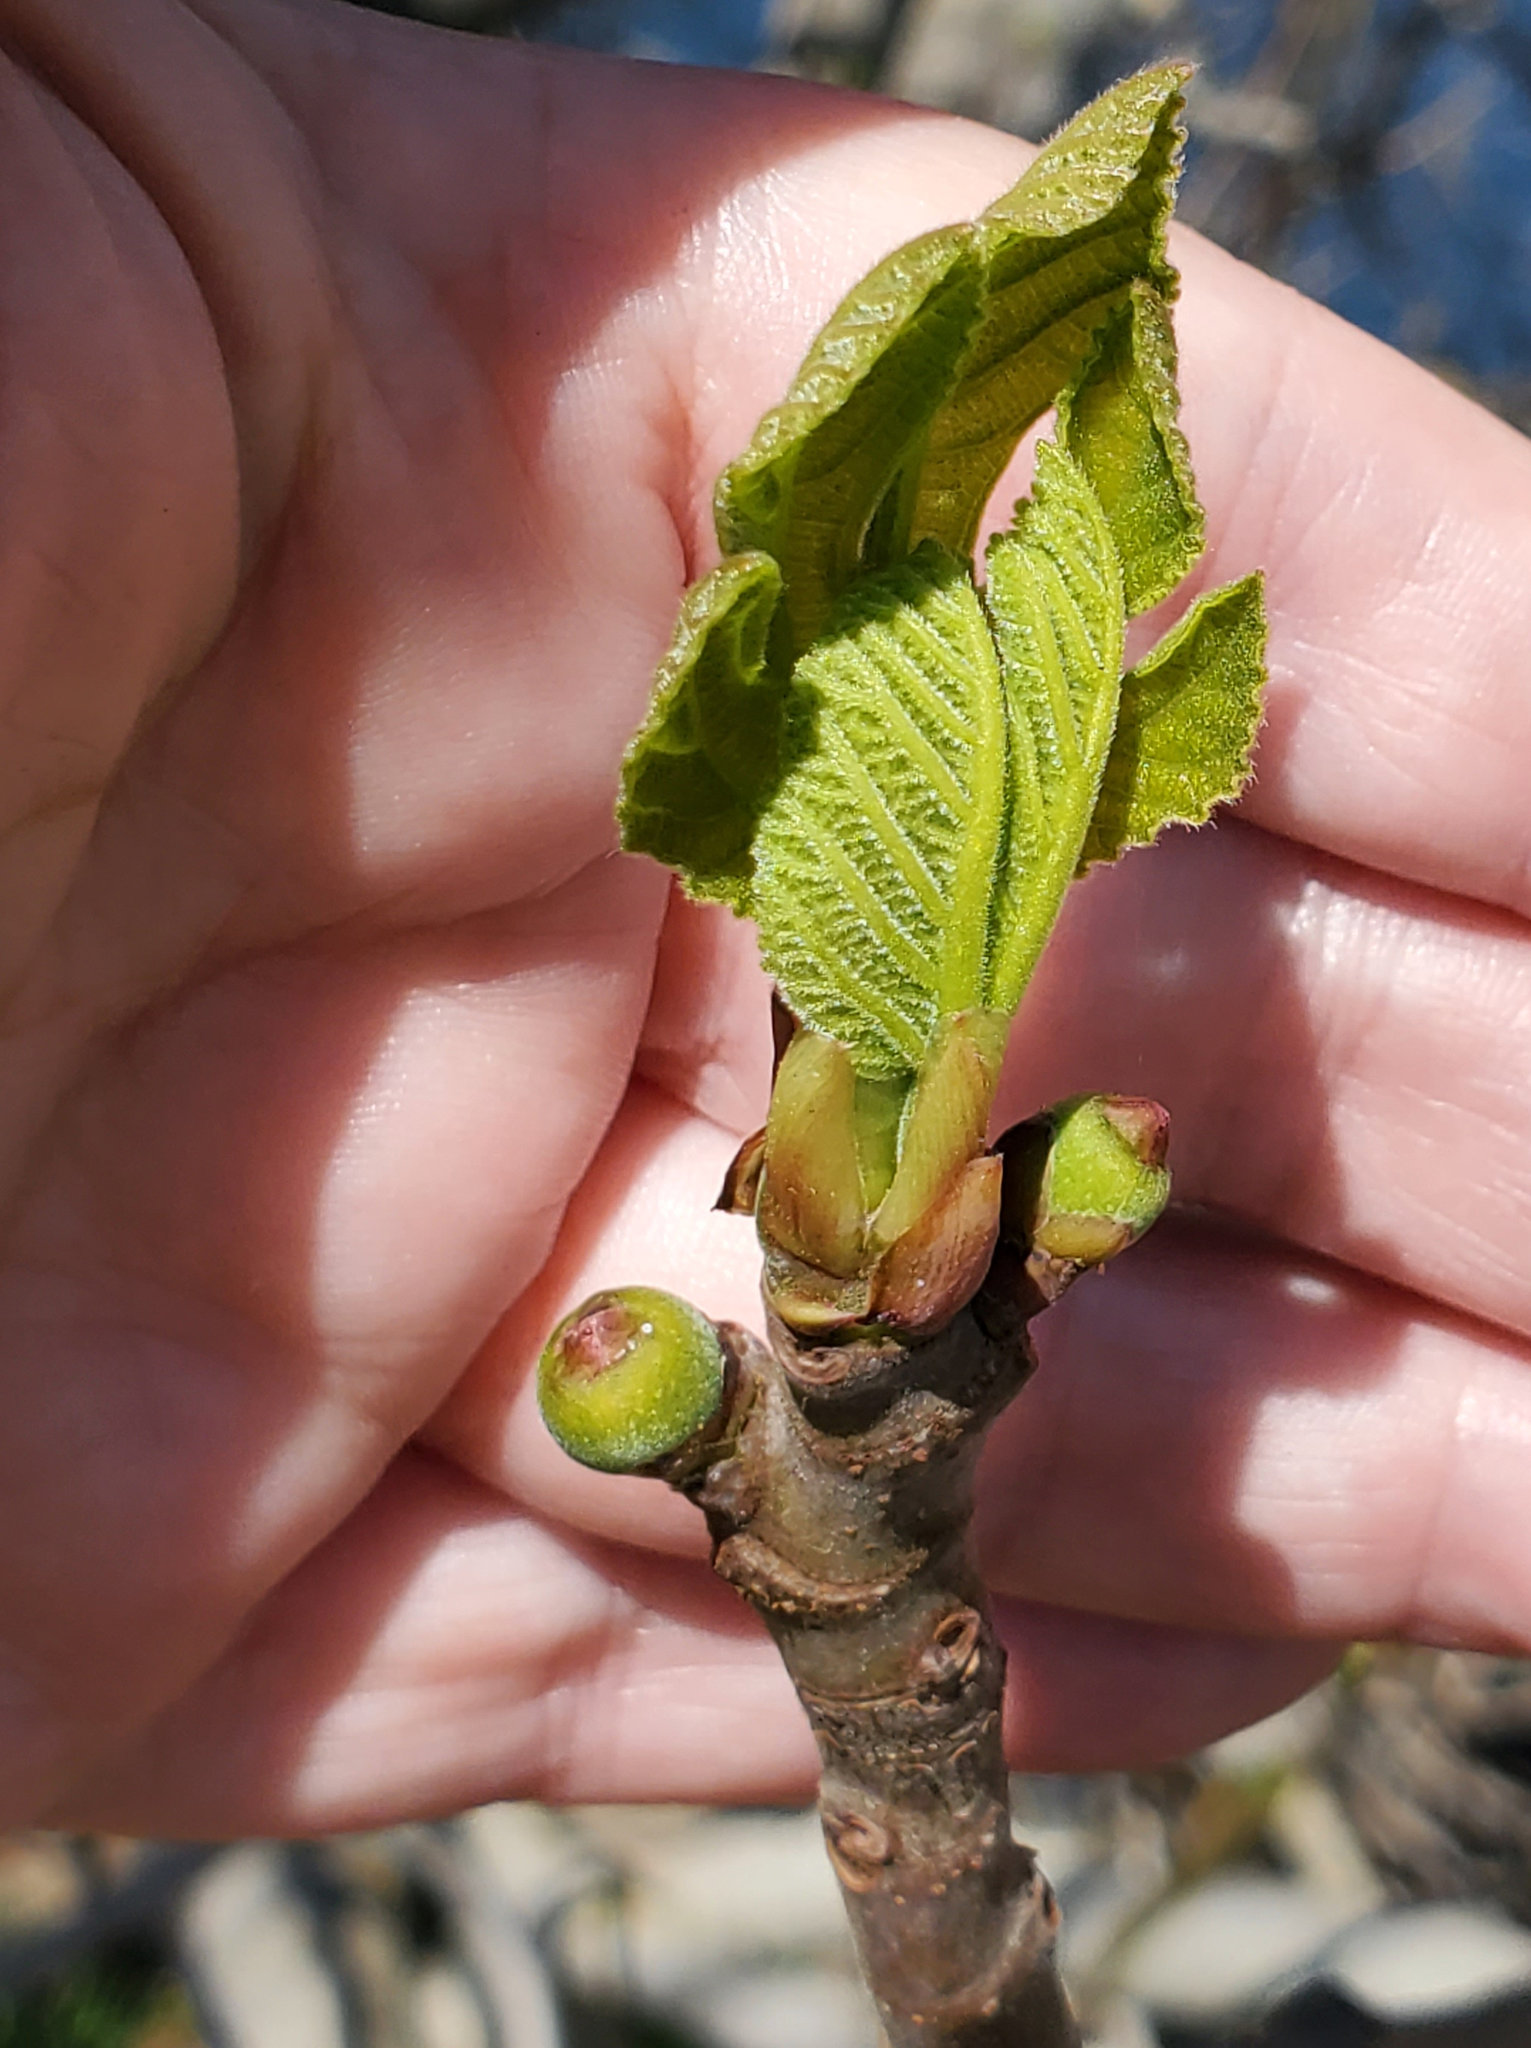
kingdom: Plantae
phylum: Tracheophyta
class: Magnoliopsida
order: Rosales
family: Moraceae
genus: Ficus
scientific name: Ficus carica
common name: Fig
